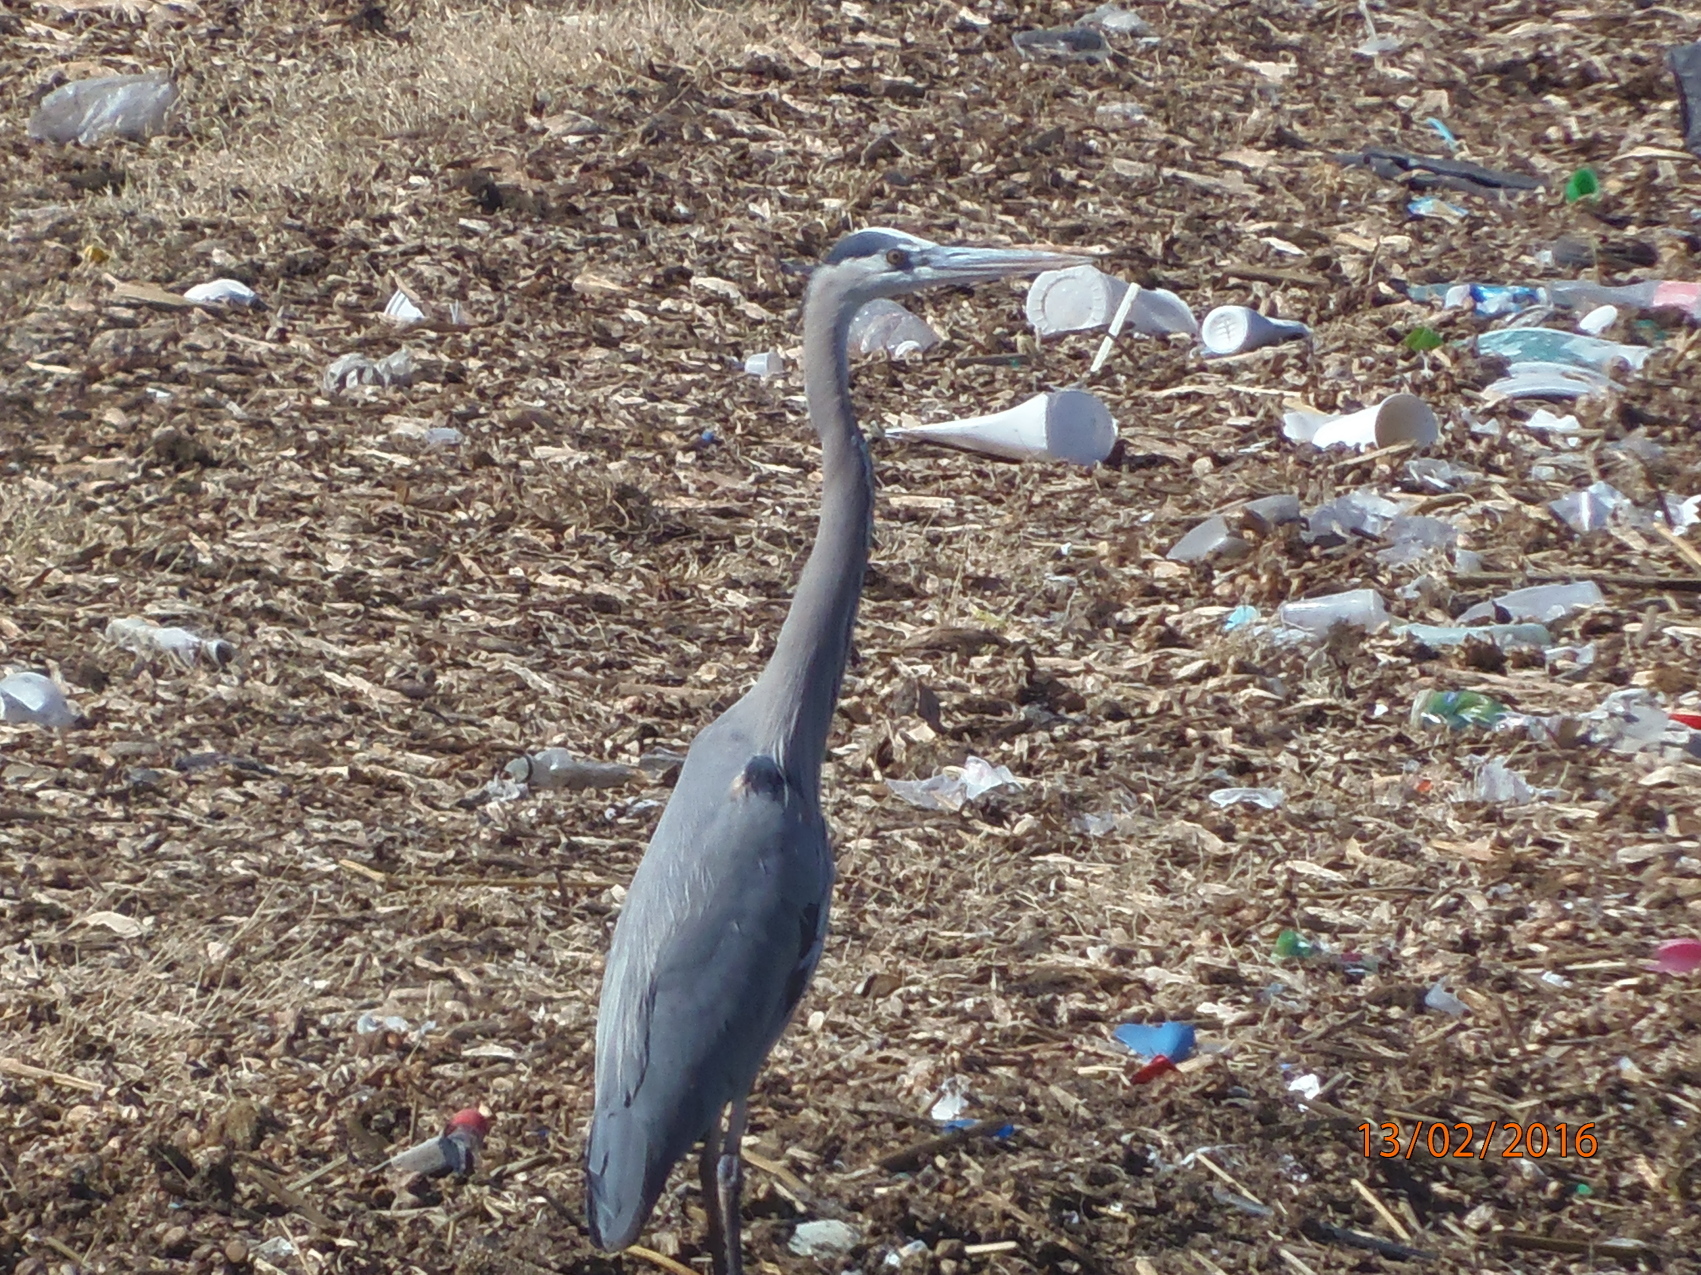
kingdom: Animalia
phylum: Chordata
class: Aves
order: Pelecaniformes
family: Ardeidae
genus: Ardea
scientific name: Ardea herodias
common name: Great blue heron
